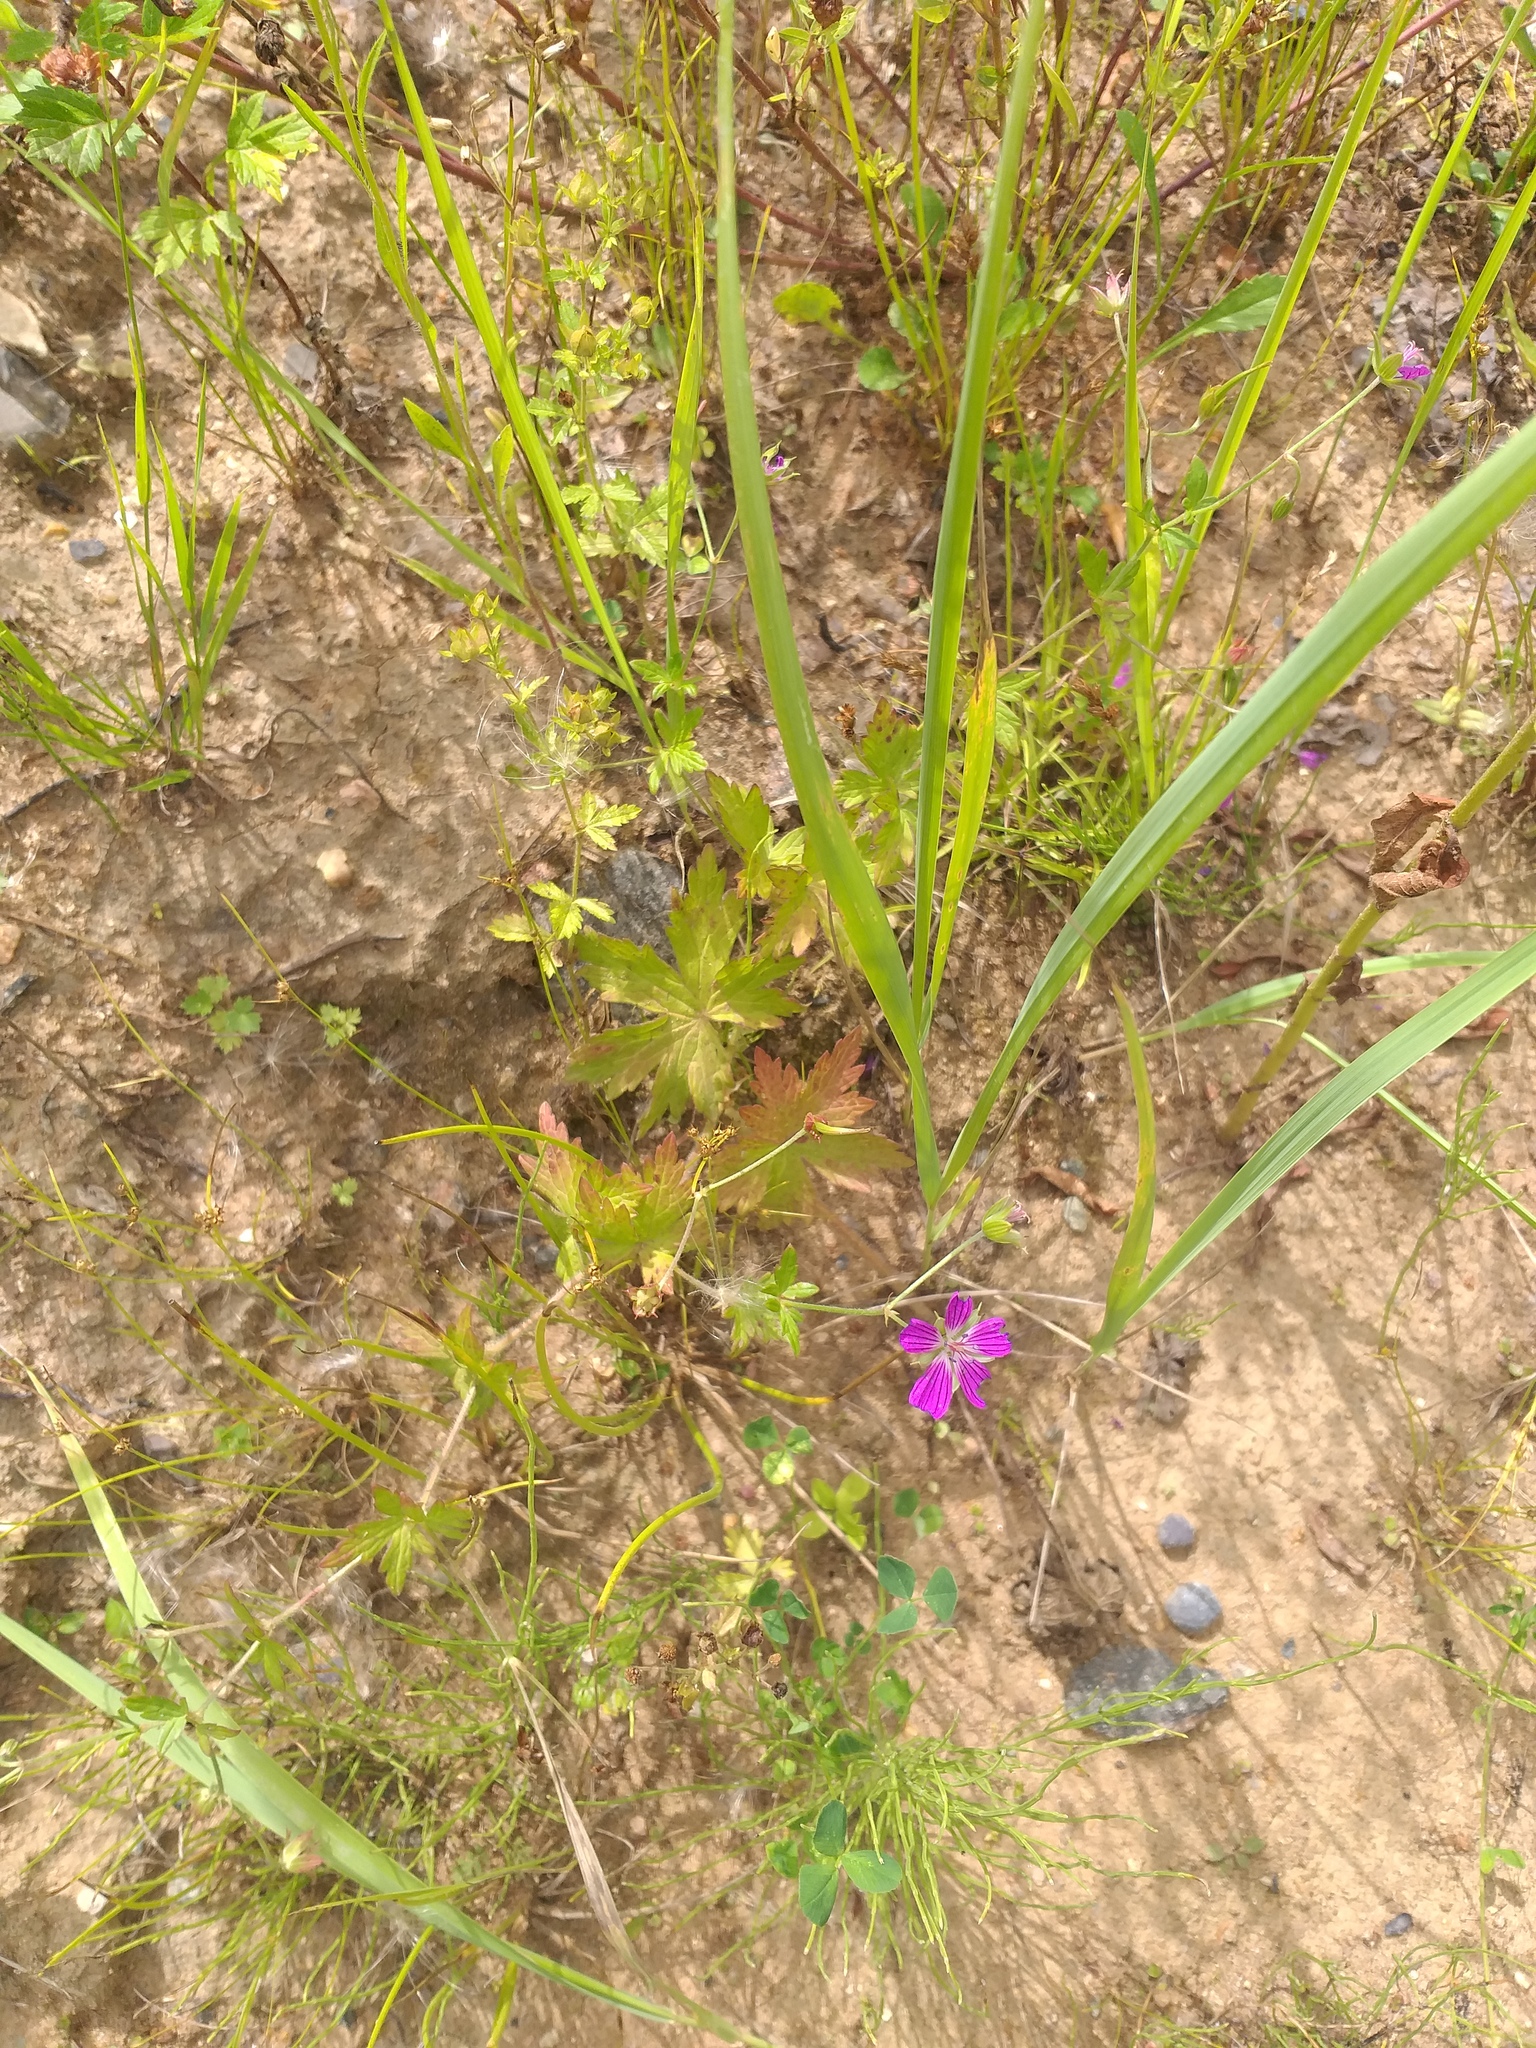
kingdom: Plantae
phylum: Tracheophyta
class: Magnoliopsida
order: Geraniales
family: Geraniaceae
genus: Geranium
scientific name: Geranium palustre
